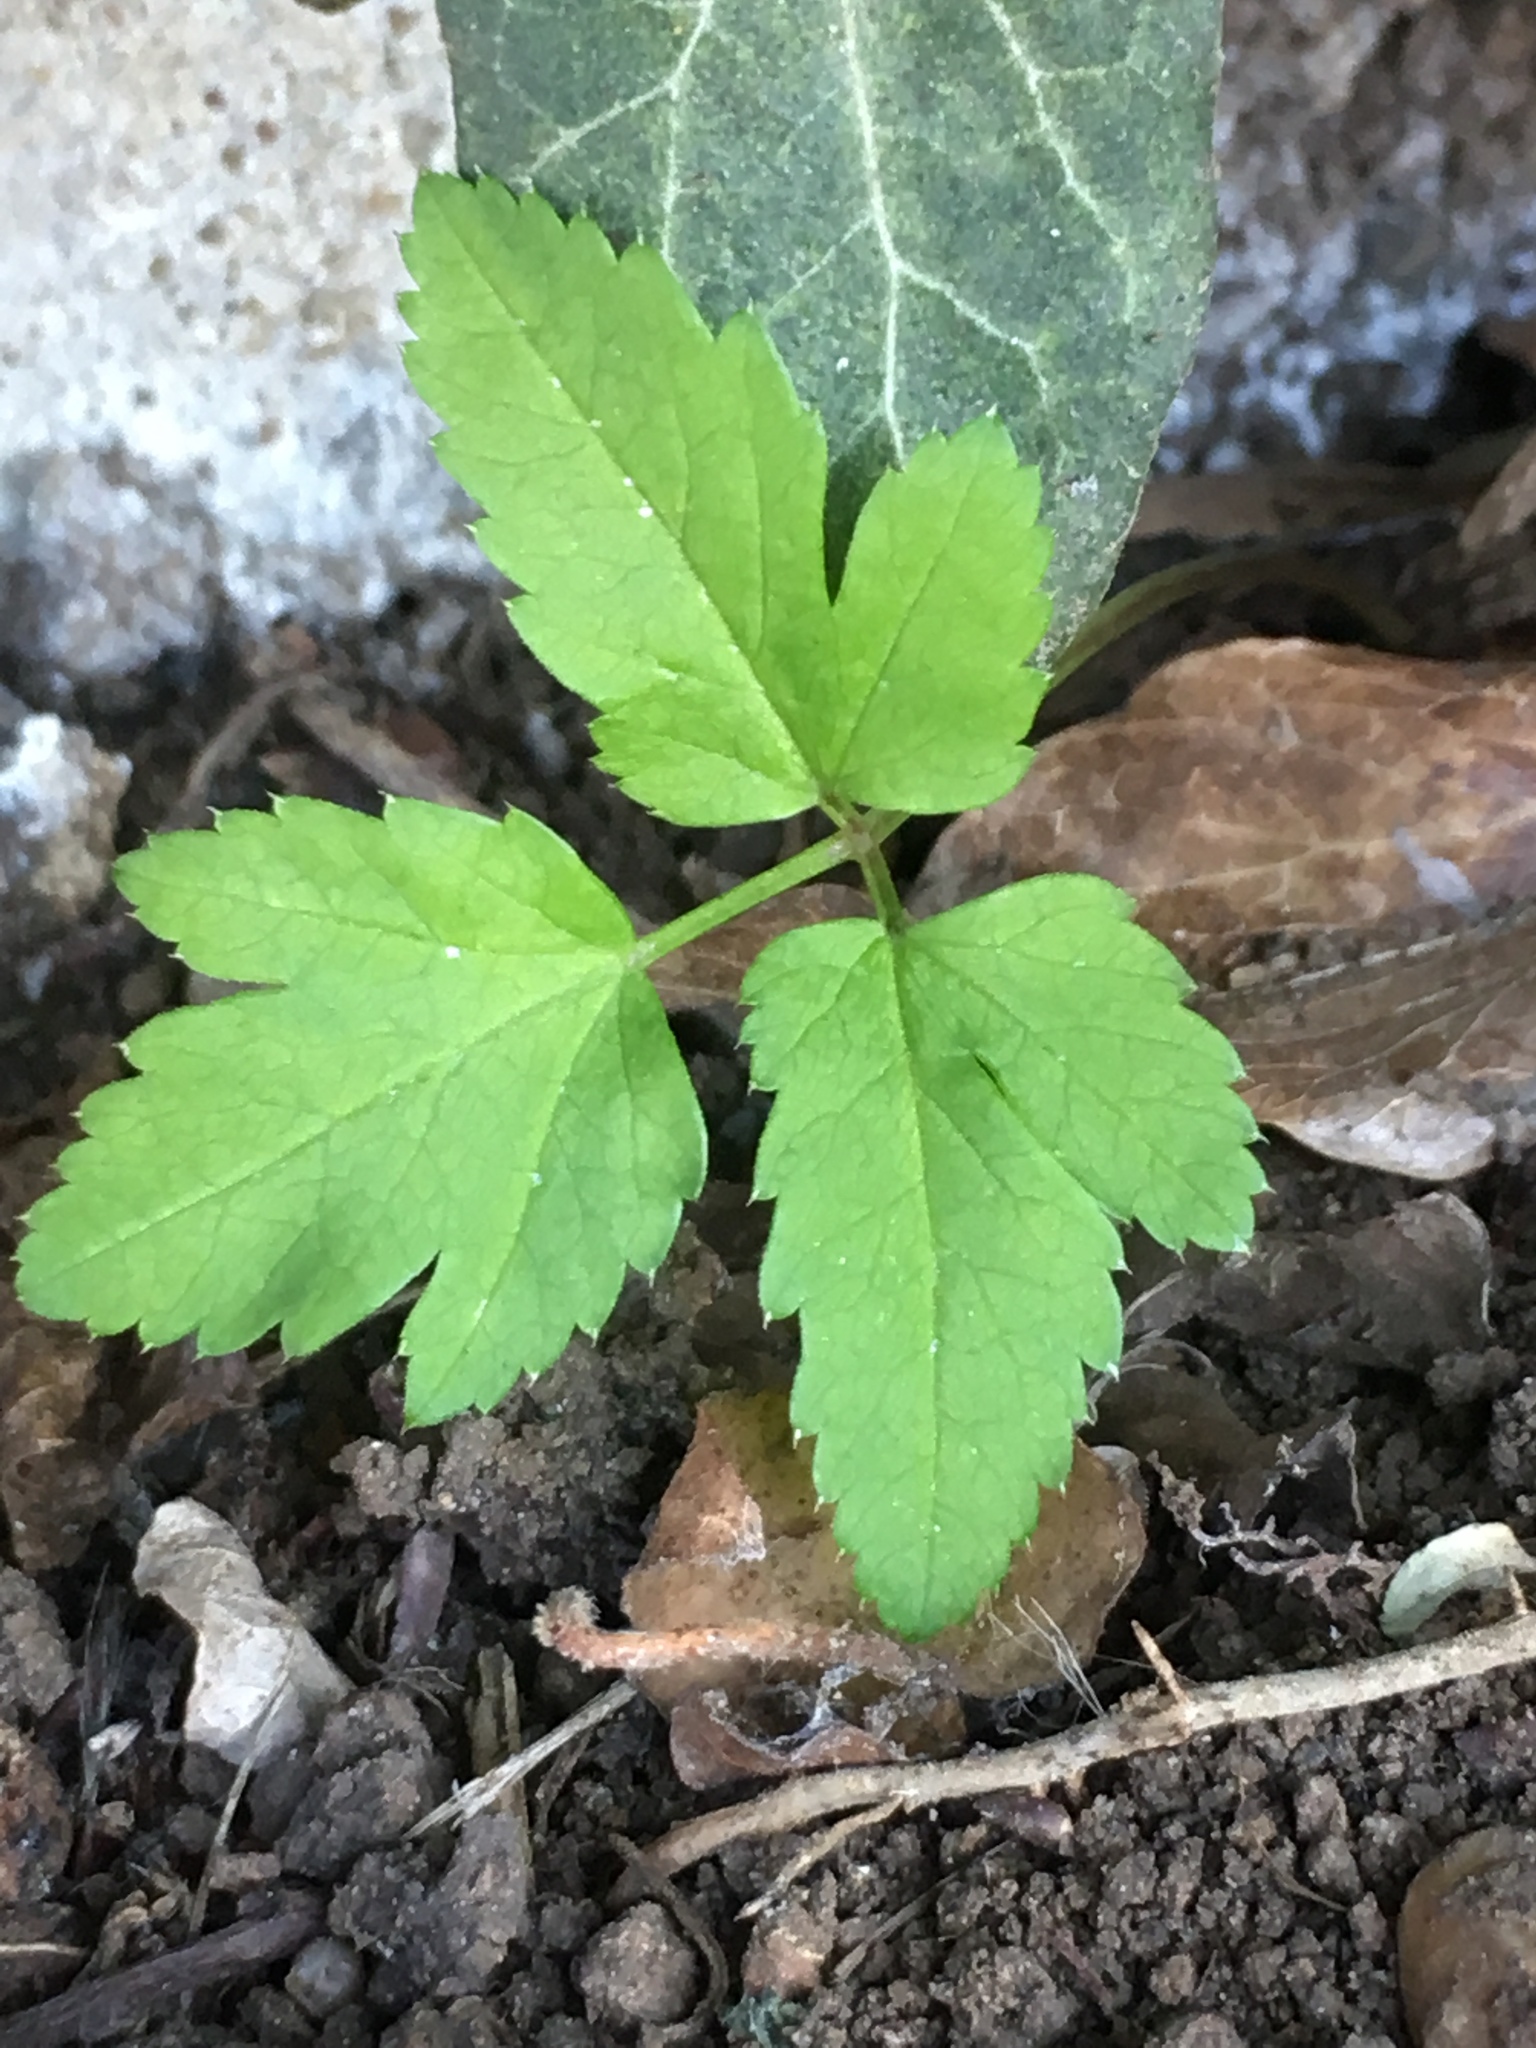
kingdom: Plantae
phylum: Tracheophyta
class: Magnoliopsida
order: Apiales
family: Apiaceae
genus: Aegopodium
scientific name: Aegopodium podagraria
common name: Ground-elder
